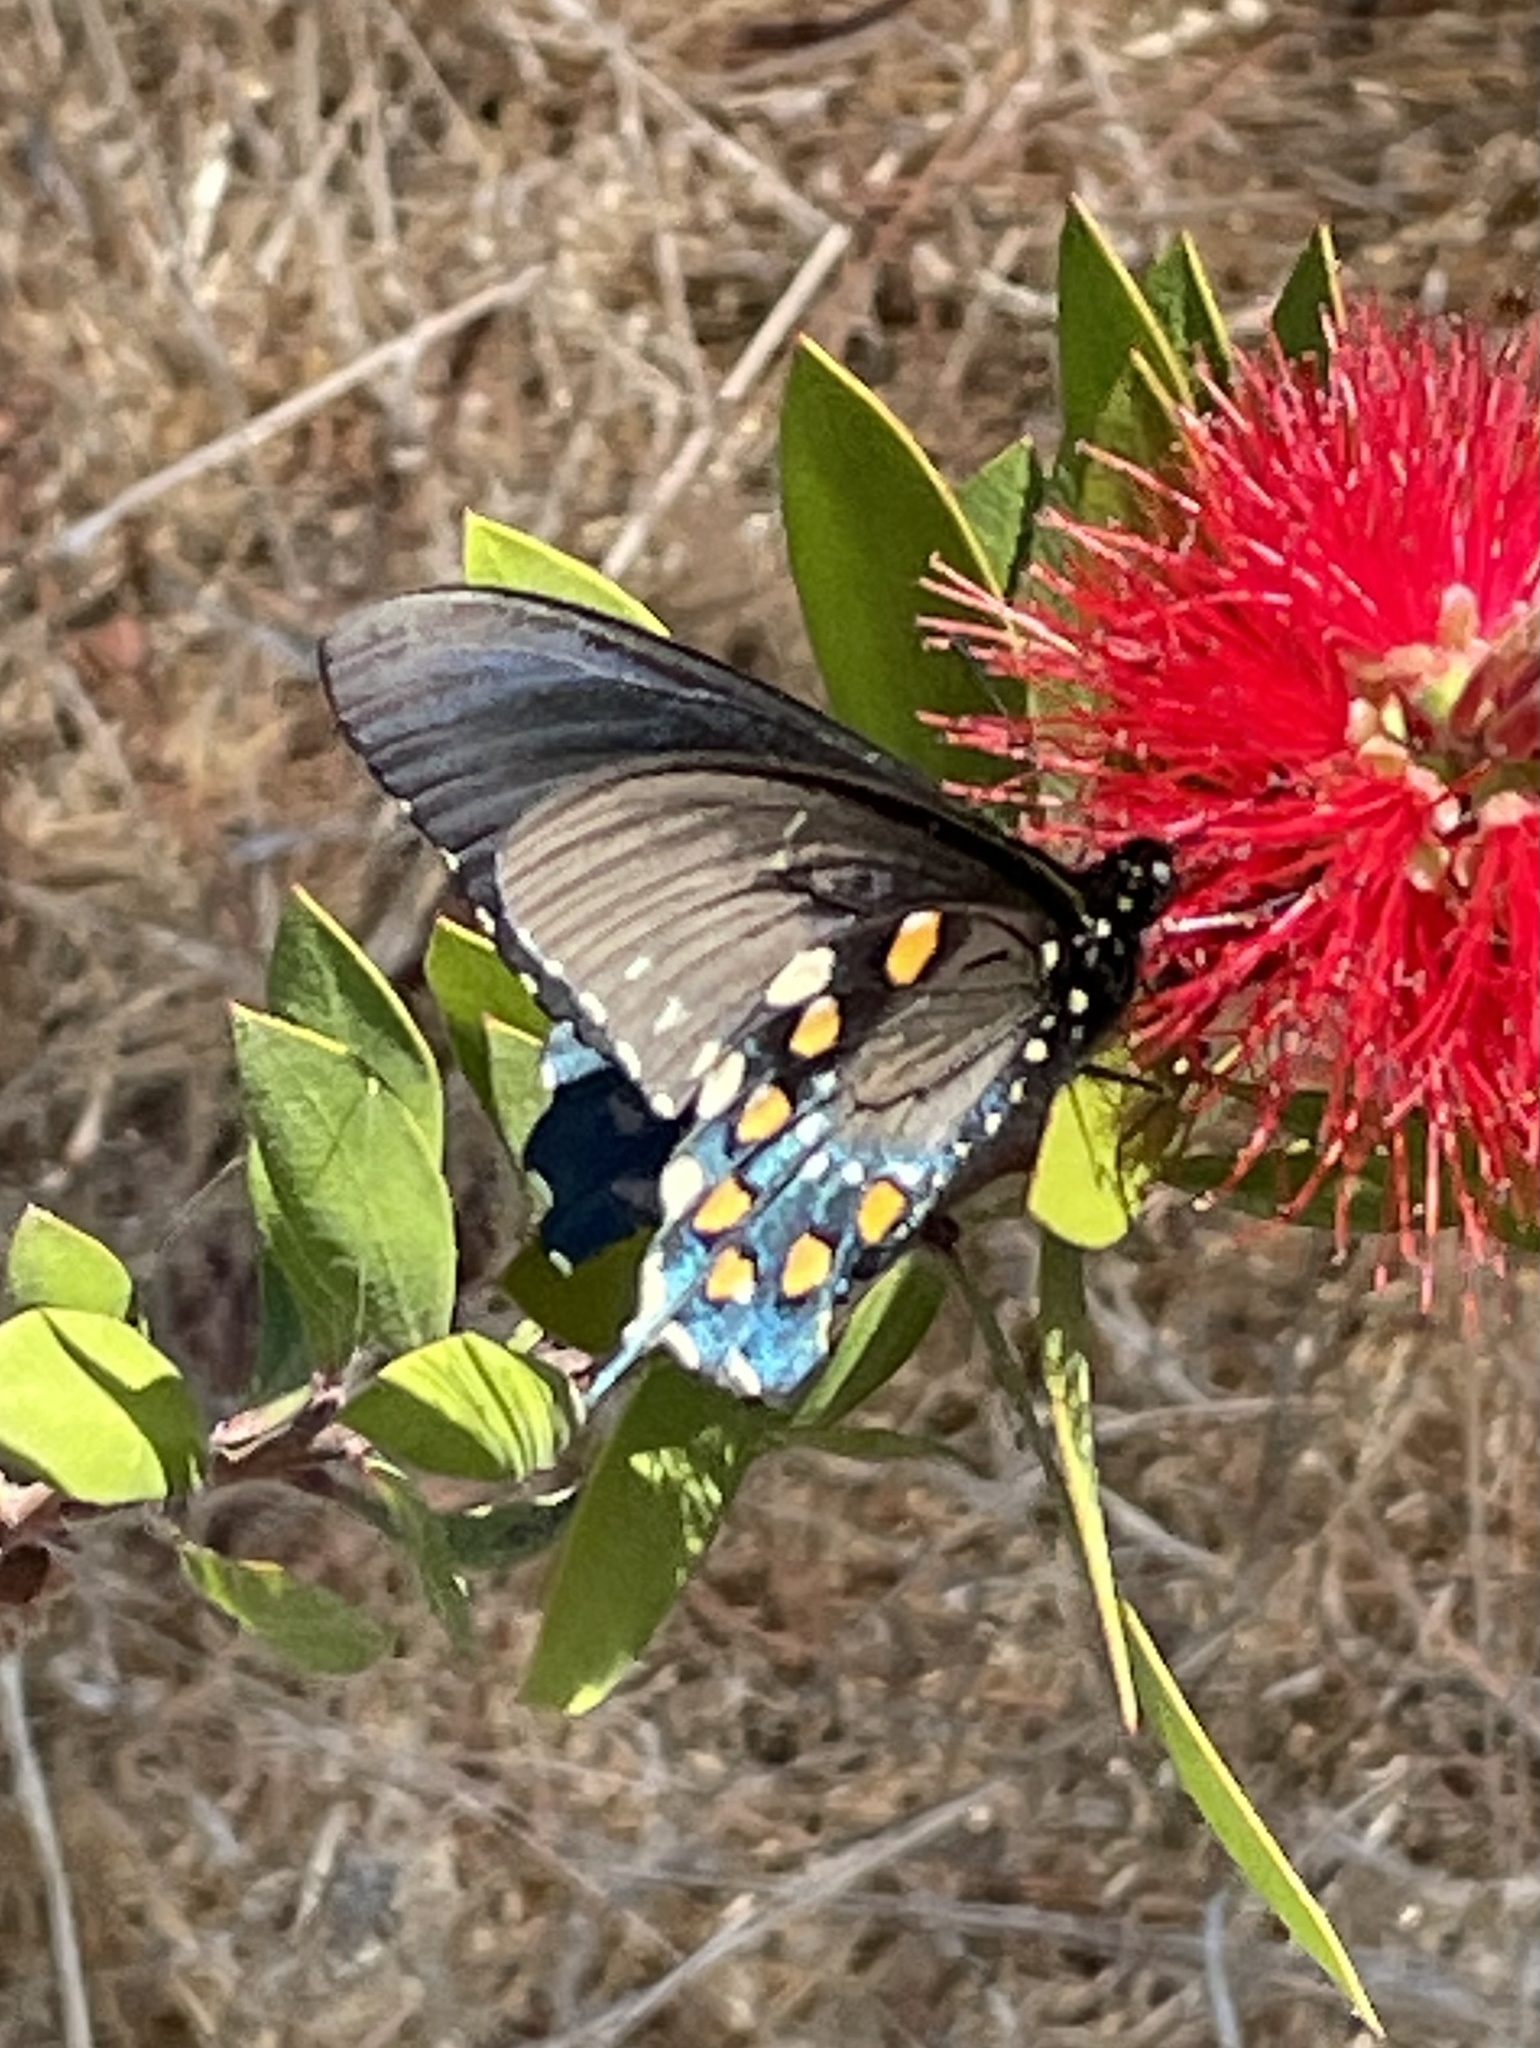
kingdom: Animalia
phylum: Arthropoda
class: Insecta
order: Lepidoptera
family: Papilionidae
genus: Battus
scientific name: Battus philenor
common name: Pipevine swallowtail
